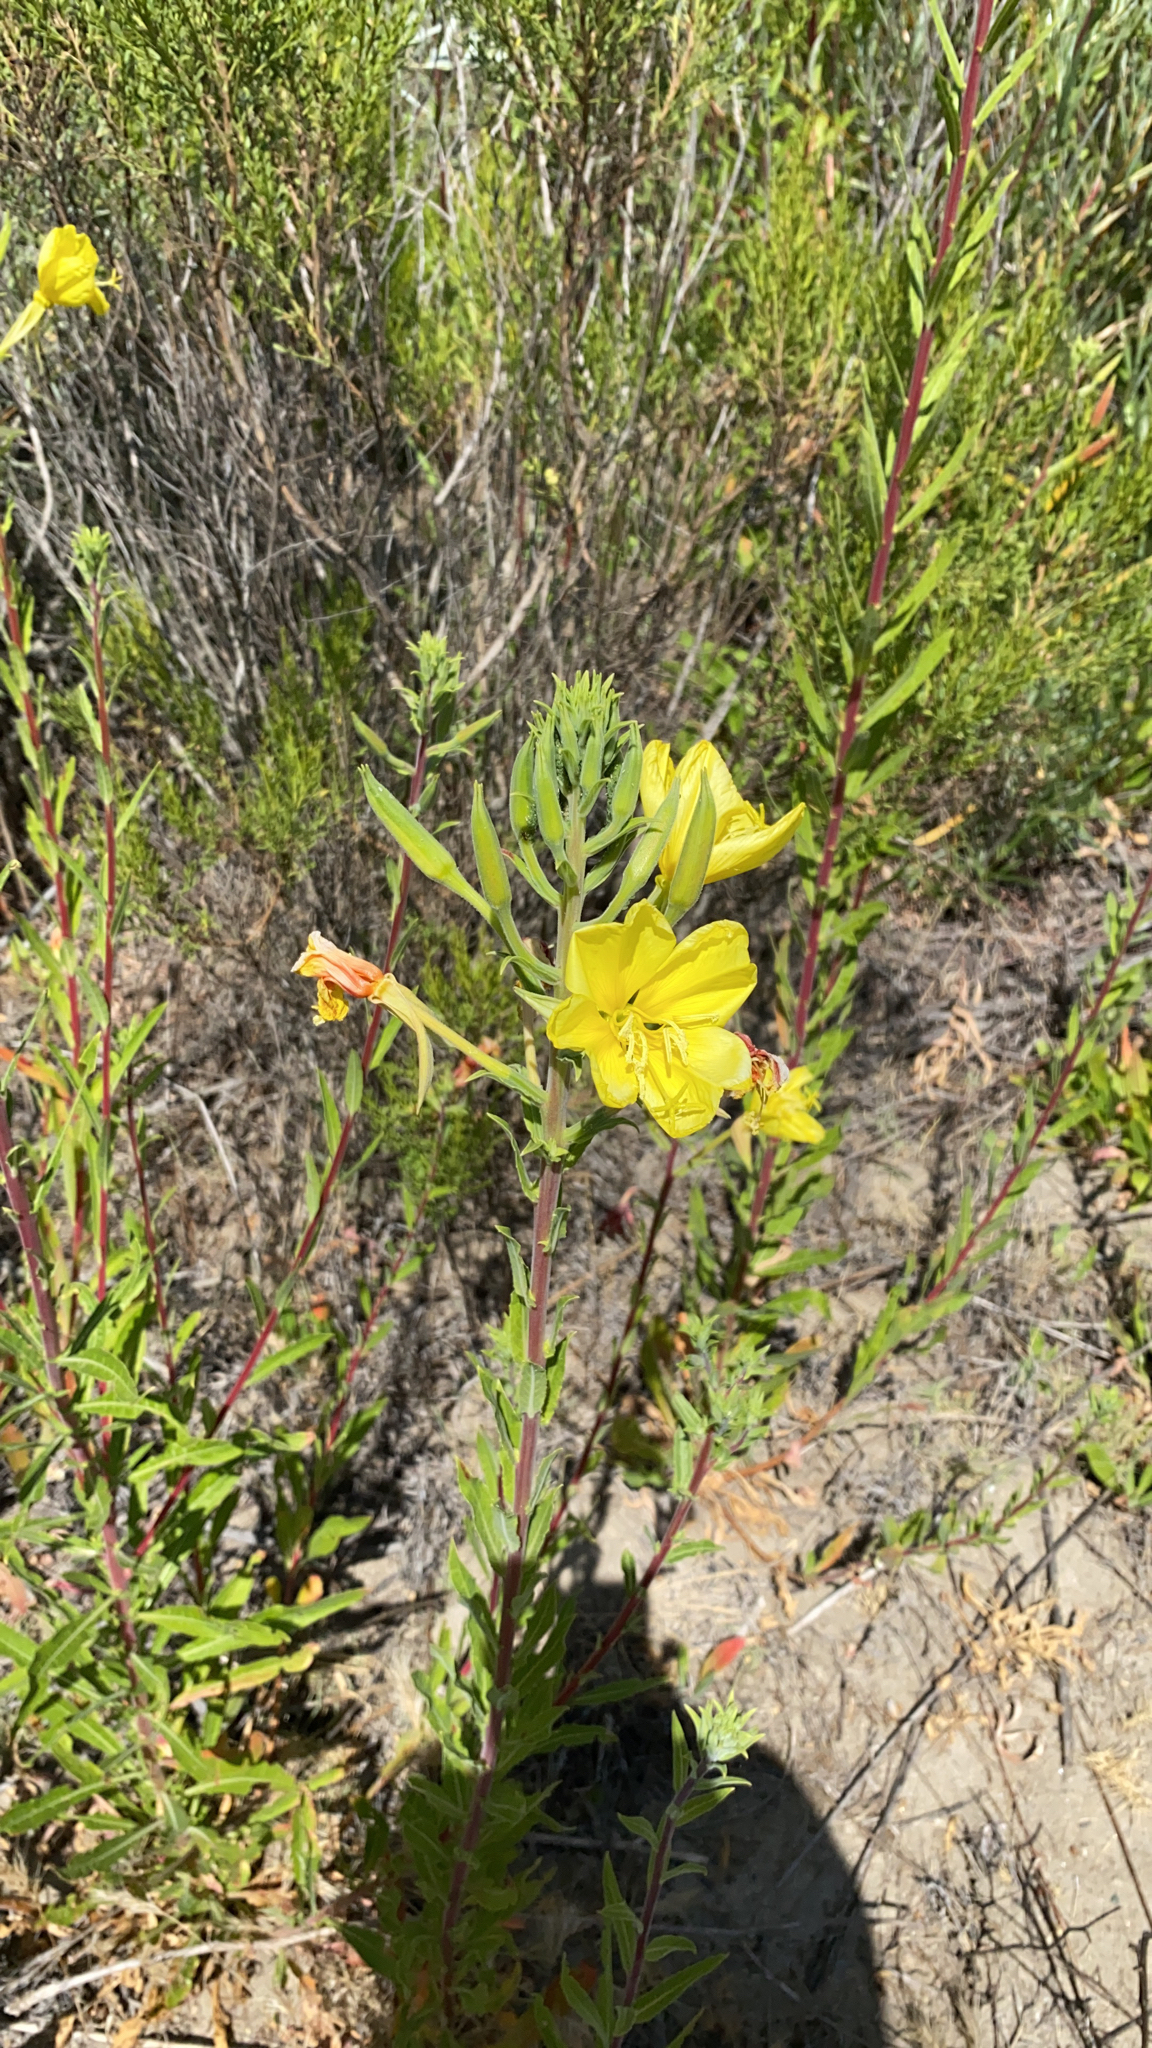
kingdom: Plantae
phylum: Tracheophyta
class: Magnoliopsida
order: Myrtales
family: Onagraceae
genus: Oenothera
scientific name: Oenothera elata
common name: Hooker's evening-primrose
